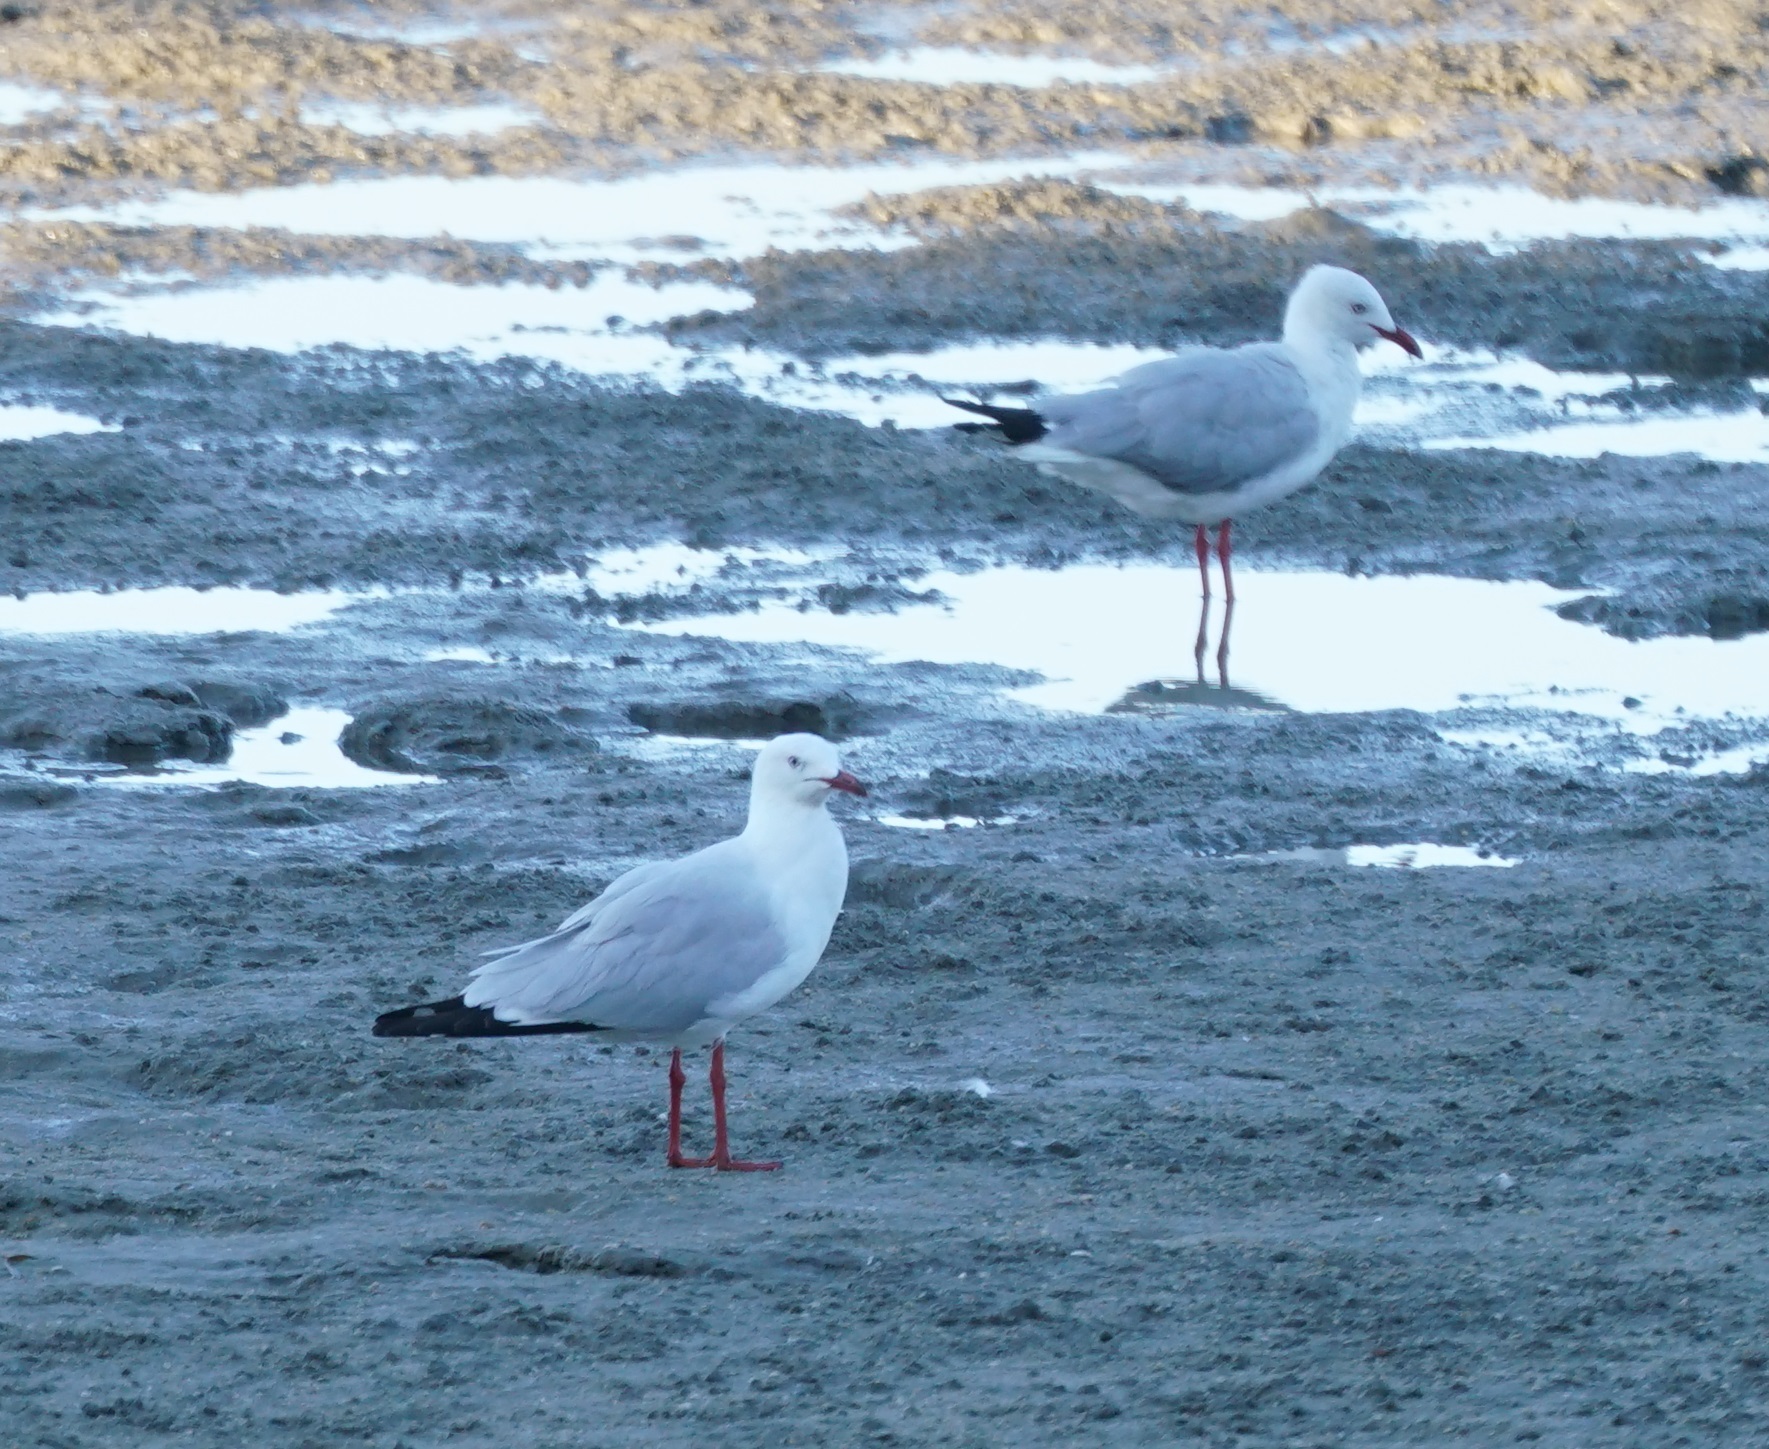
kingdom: Animalia
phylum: Chordata
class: Aves
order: Charadriiformes
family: Laridae
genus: Chroicocephalus
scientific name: Chroicocephalus novaehollandiae
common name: Silver gull
